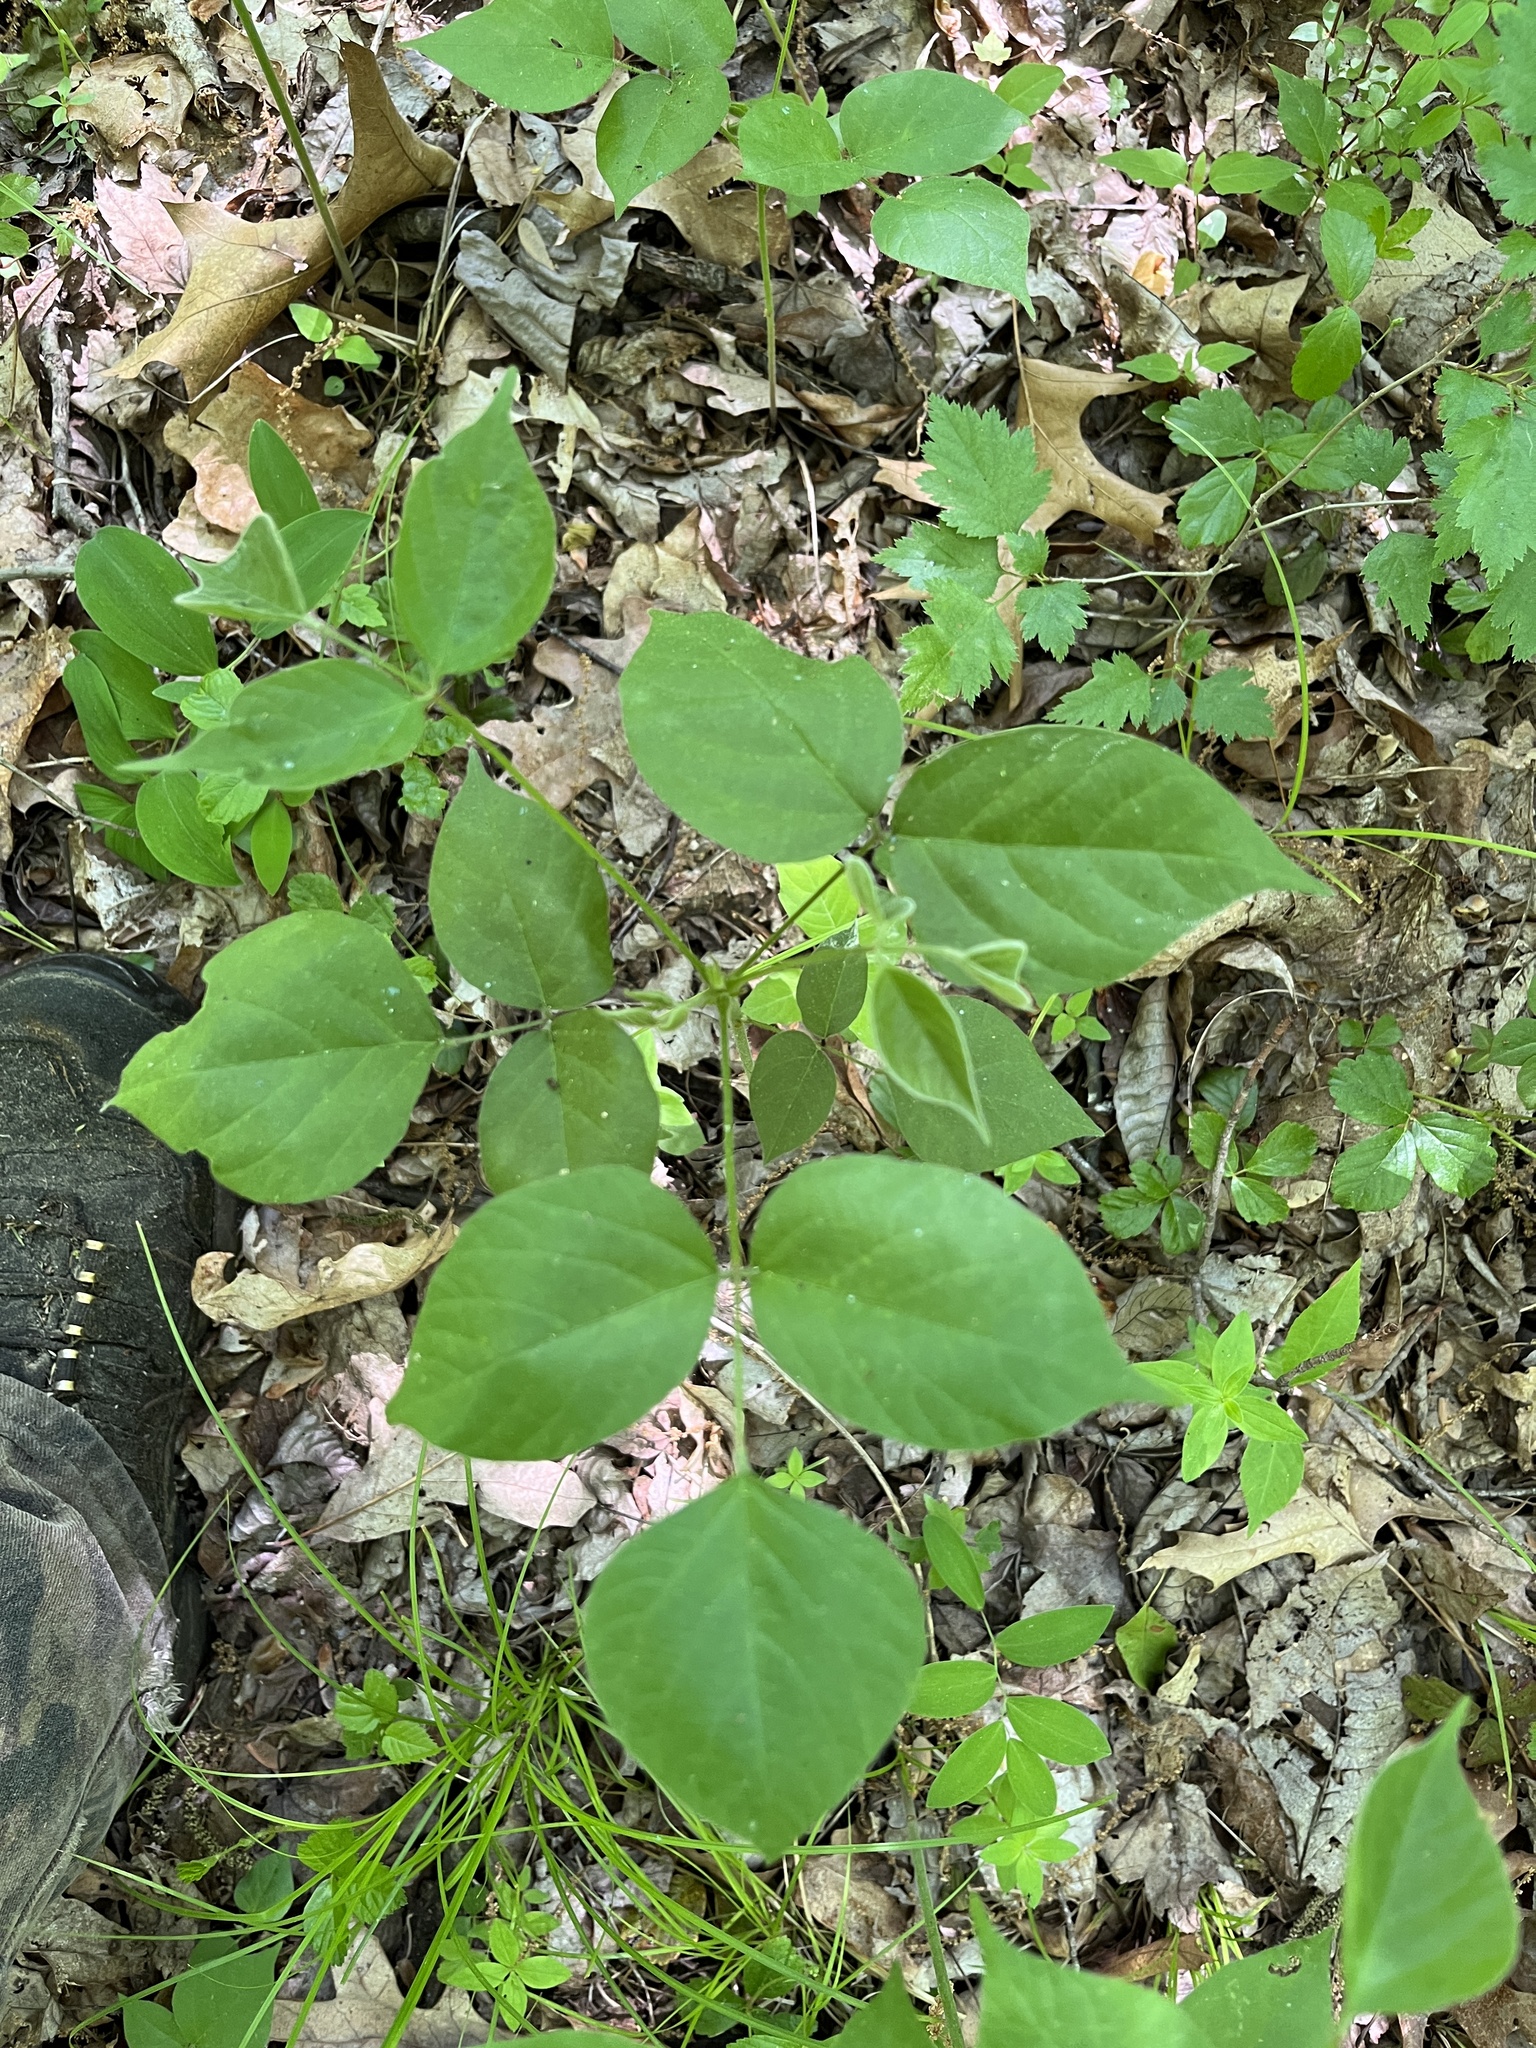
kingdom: Plantae
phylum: Tracheophyta
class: Magnoliopsida
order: Fabales
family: Fabaceae
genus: Hylodesmum
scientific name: Hylodesmum glutinosum
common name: Clustered-leaved tick-trefoil
